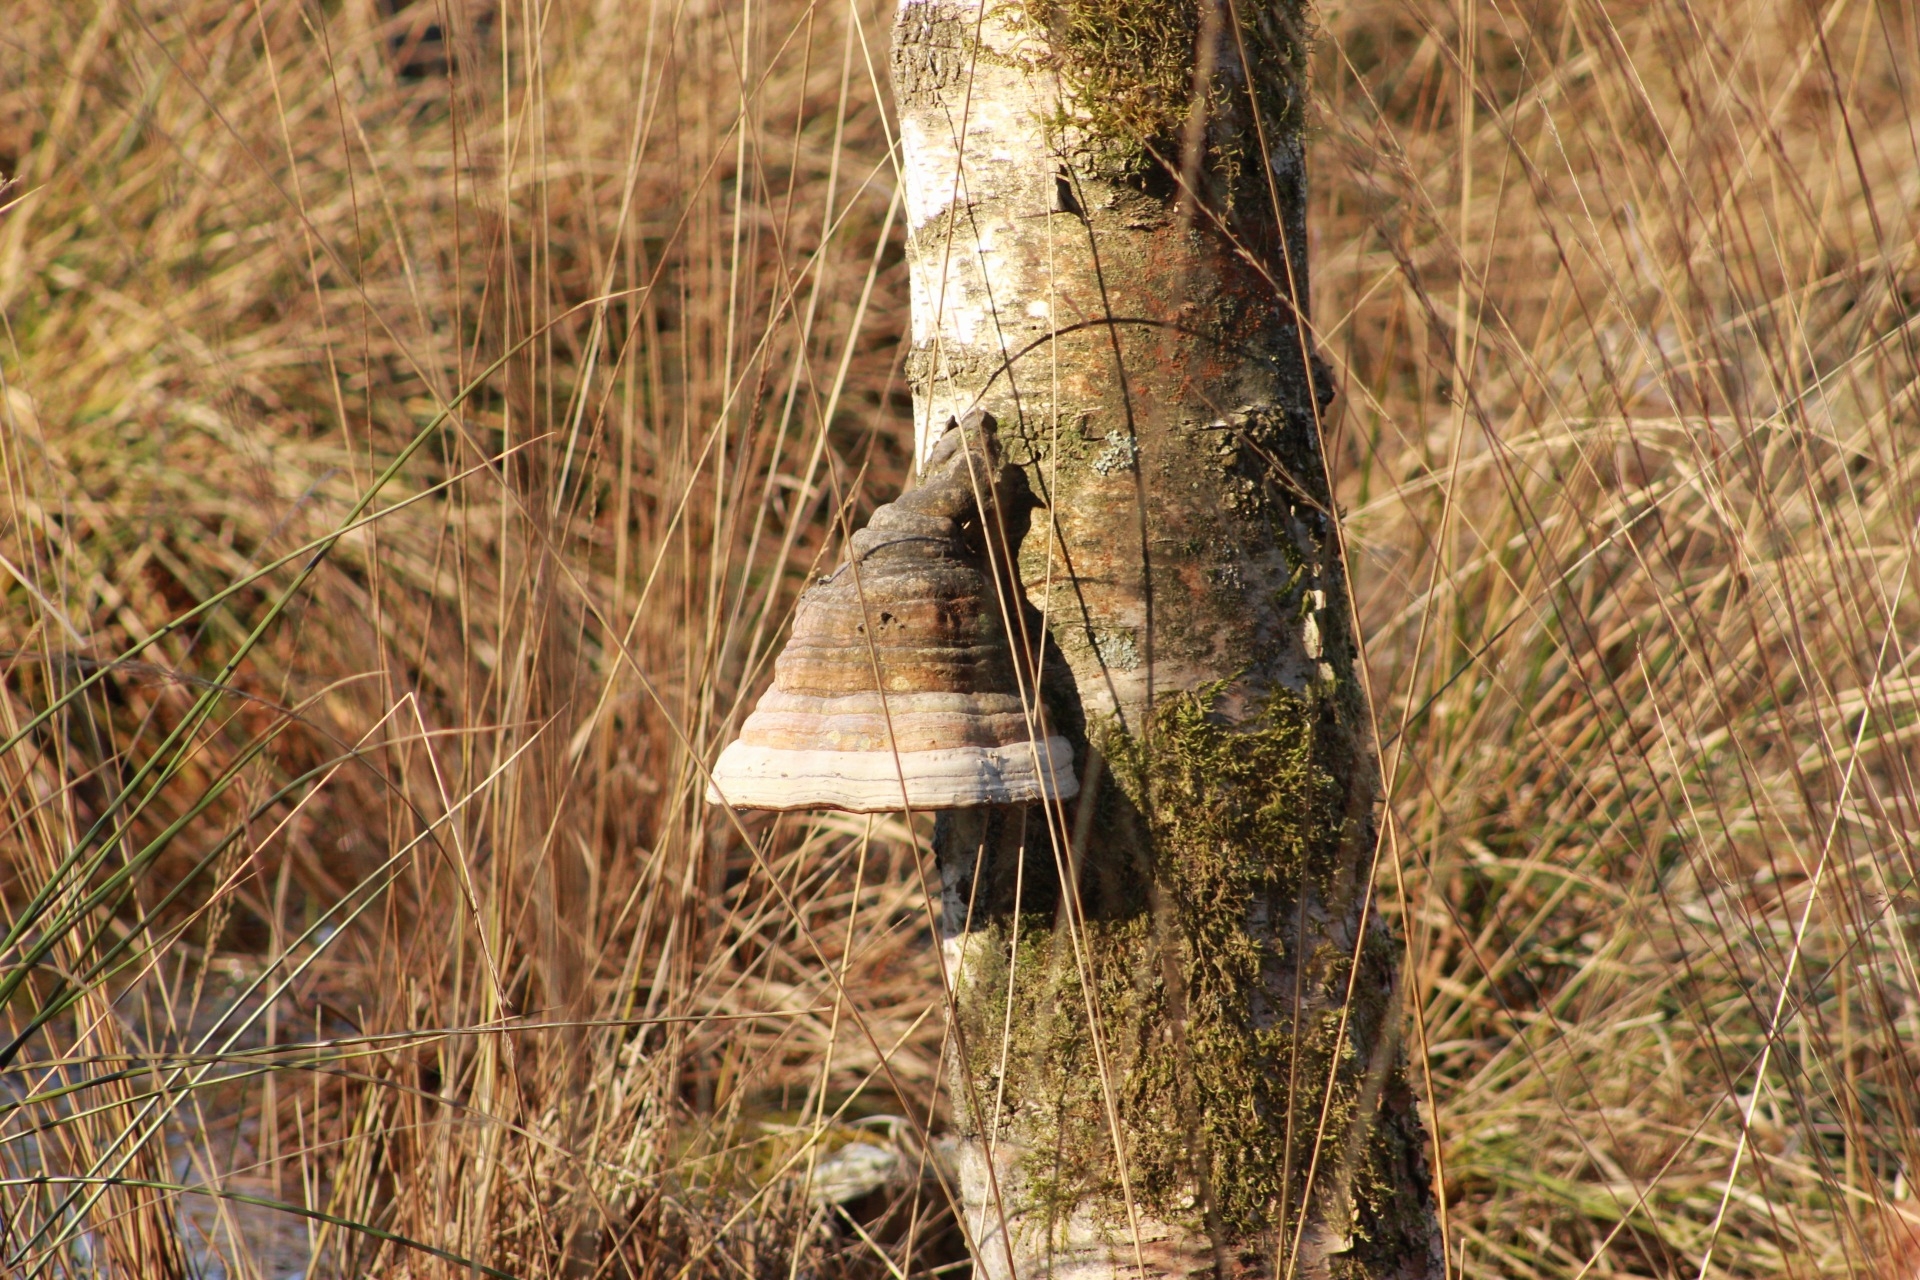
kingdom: Fungi
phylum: Basidiomycota
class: Agaricomycetes
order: Polyporales
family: Polyporaceae
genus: Fomes
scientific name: Fomes fomentarius
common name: Hoof fungus
